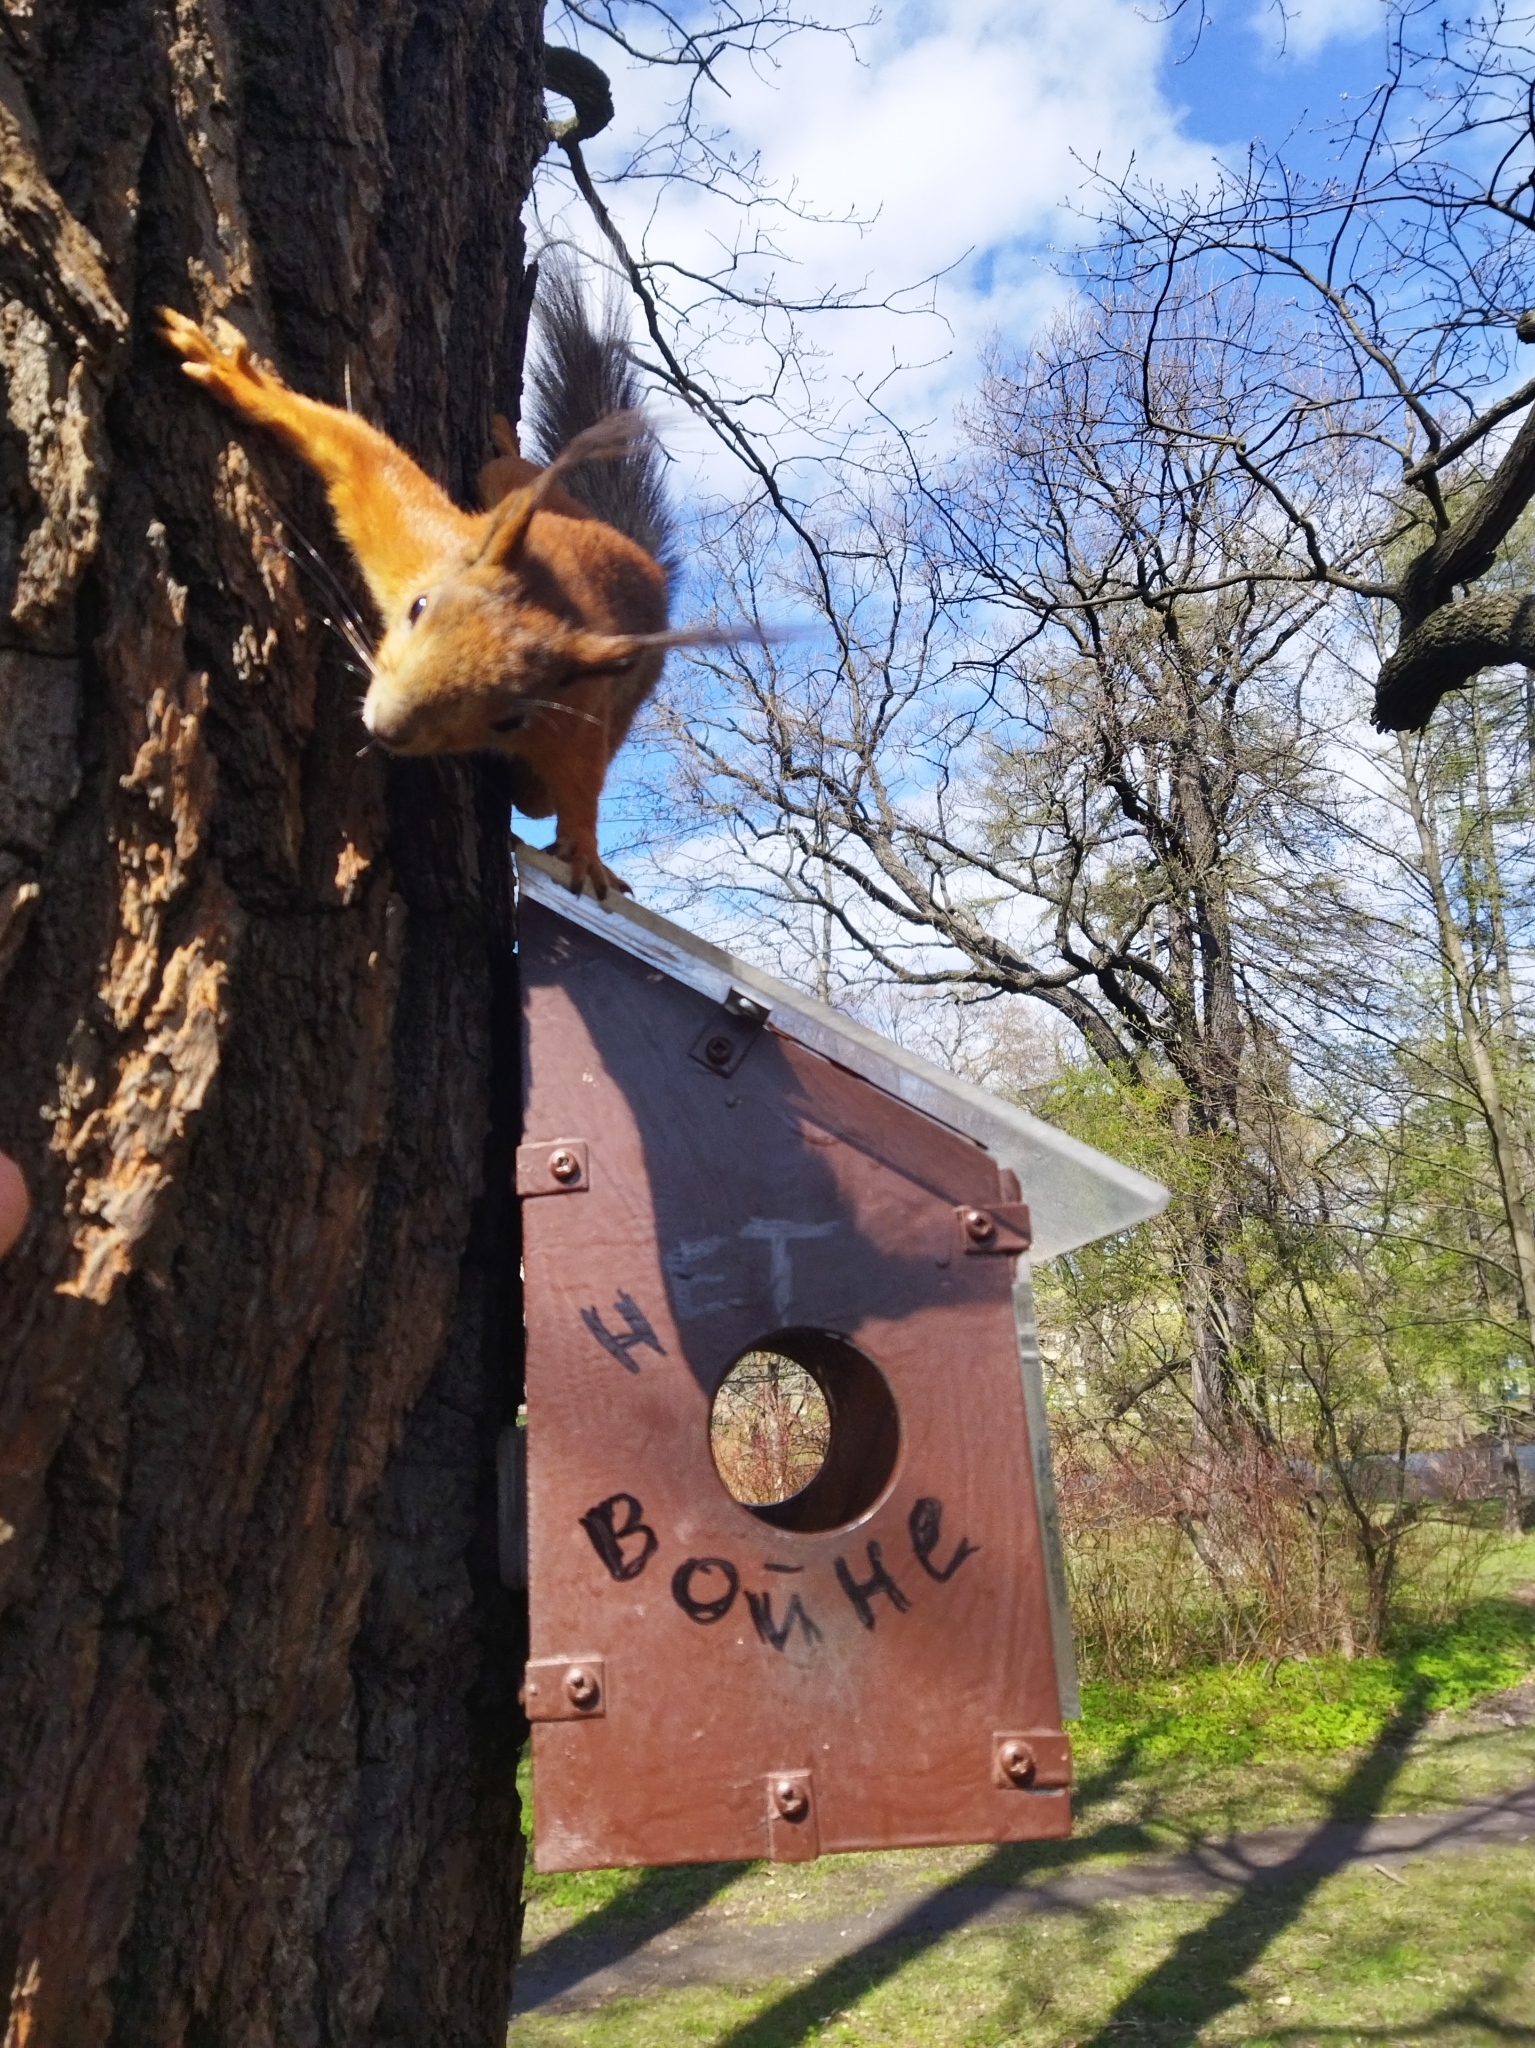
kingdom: Animalia
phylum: Chordata
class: Mammalia
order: Rodentia
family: Sciuridae
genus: Sciurus
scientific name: Sciurus vulgaris
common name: Eurasian red squirrel
